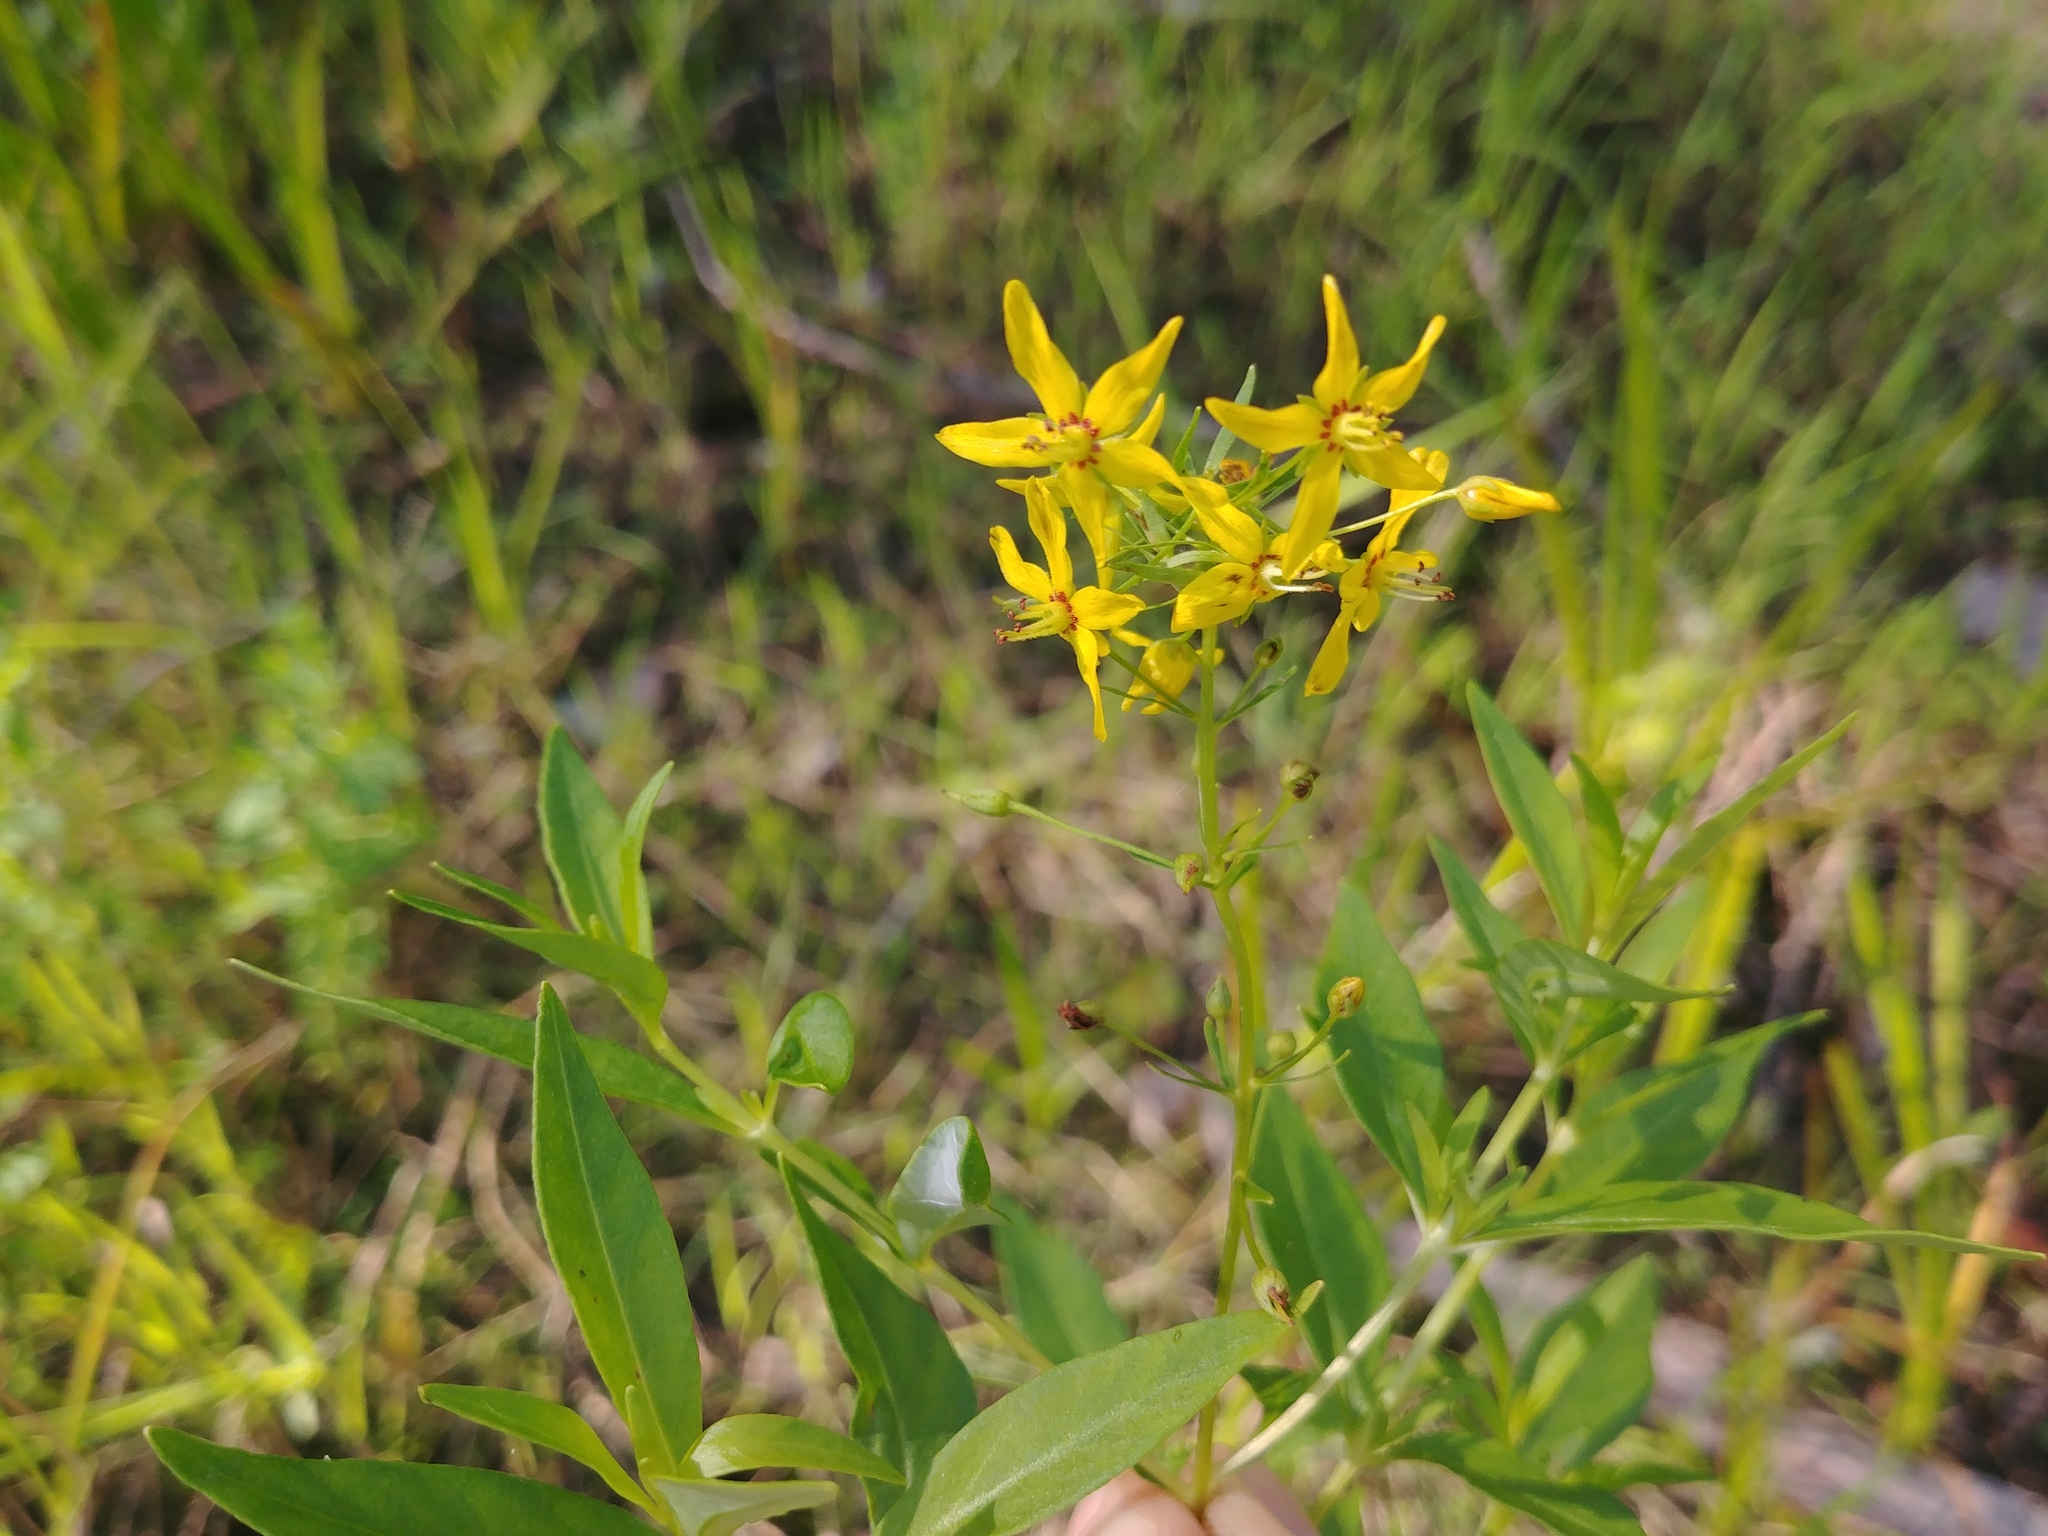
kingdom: Plantae
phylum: Tracheophyta
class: Magnoliopsida
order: Ericales
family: Primulaceae
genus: Lysimachia
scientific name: Lysimachia terrestris
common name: Lake loosestrife
